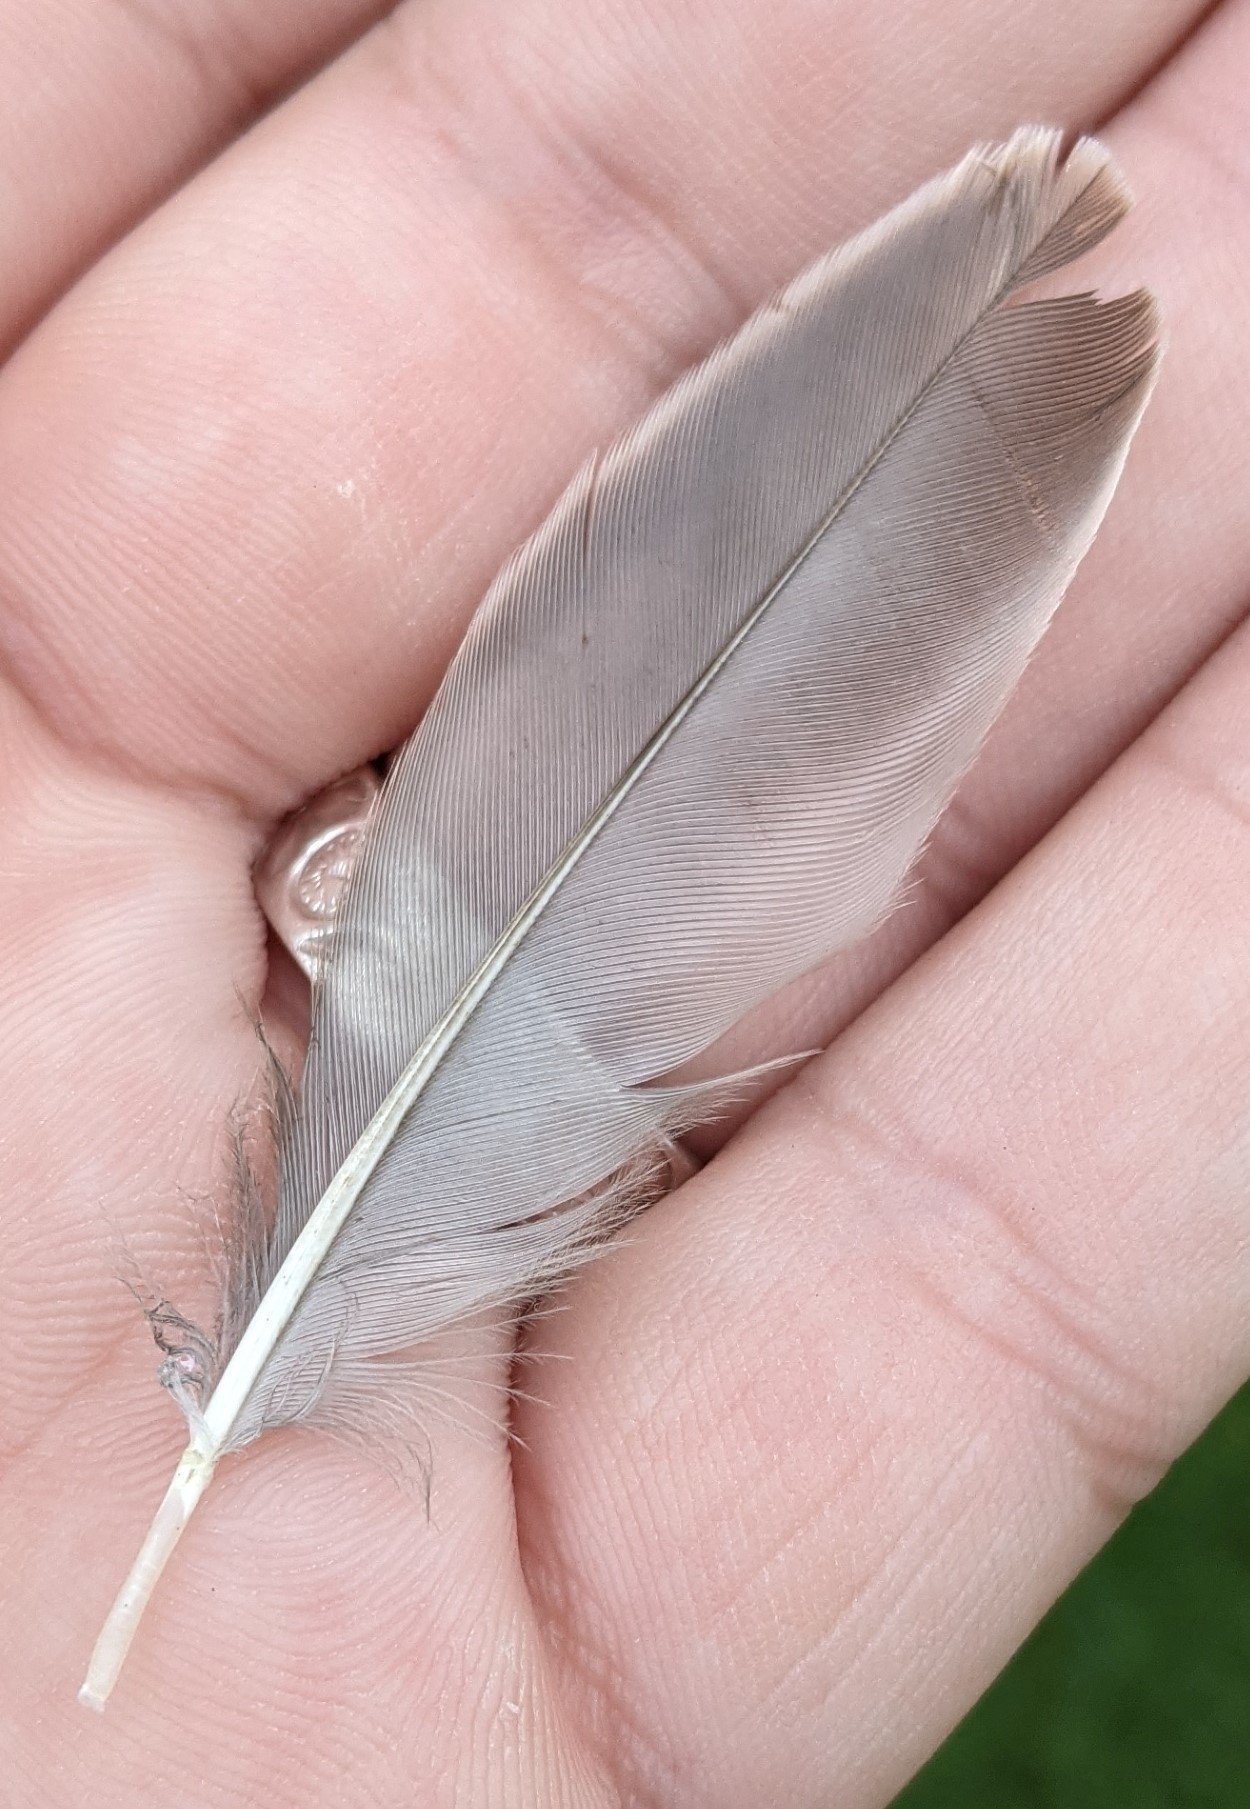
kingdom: Animalia
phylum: Chordata
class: Aves
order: Passeriformes
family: Sturnidae
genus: Sturnus
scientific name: Sturnus vulgaris
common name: Common starling
